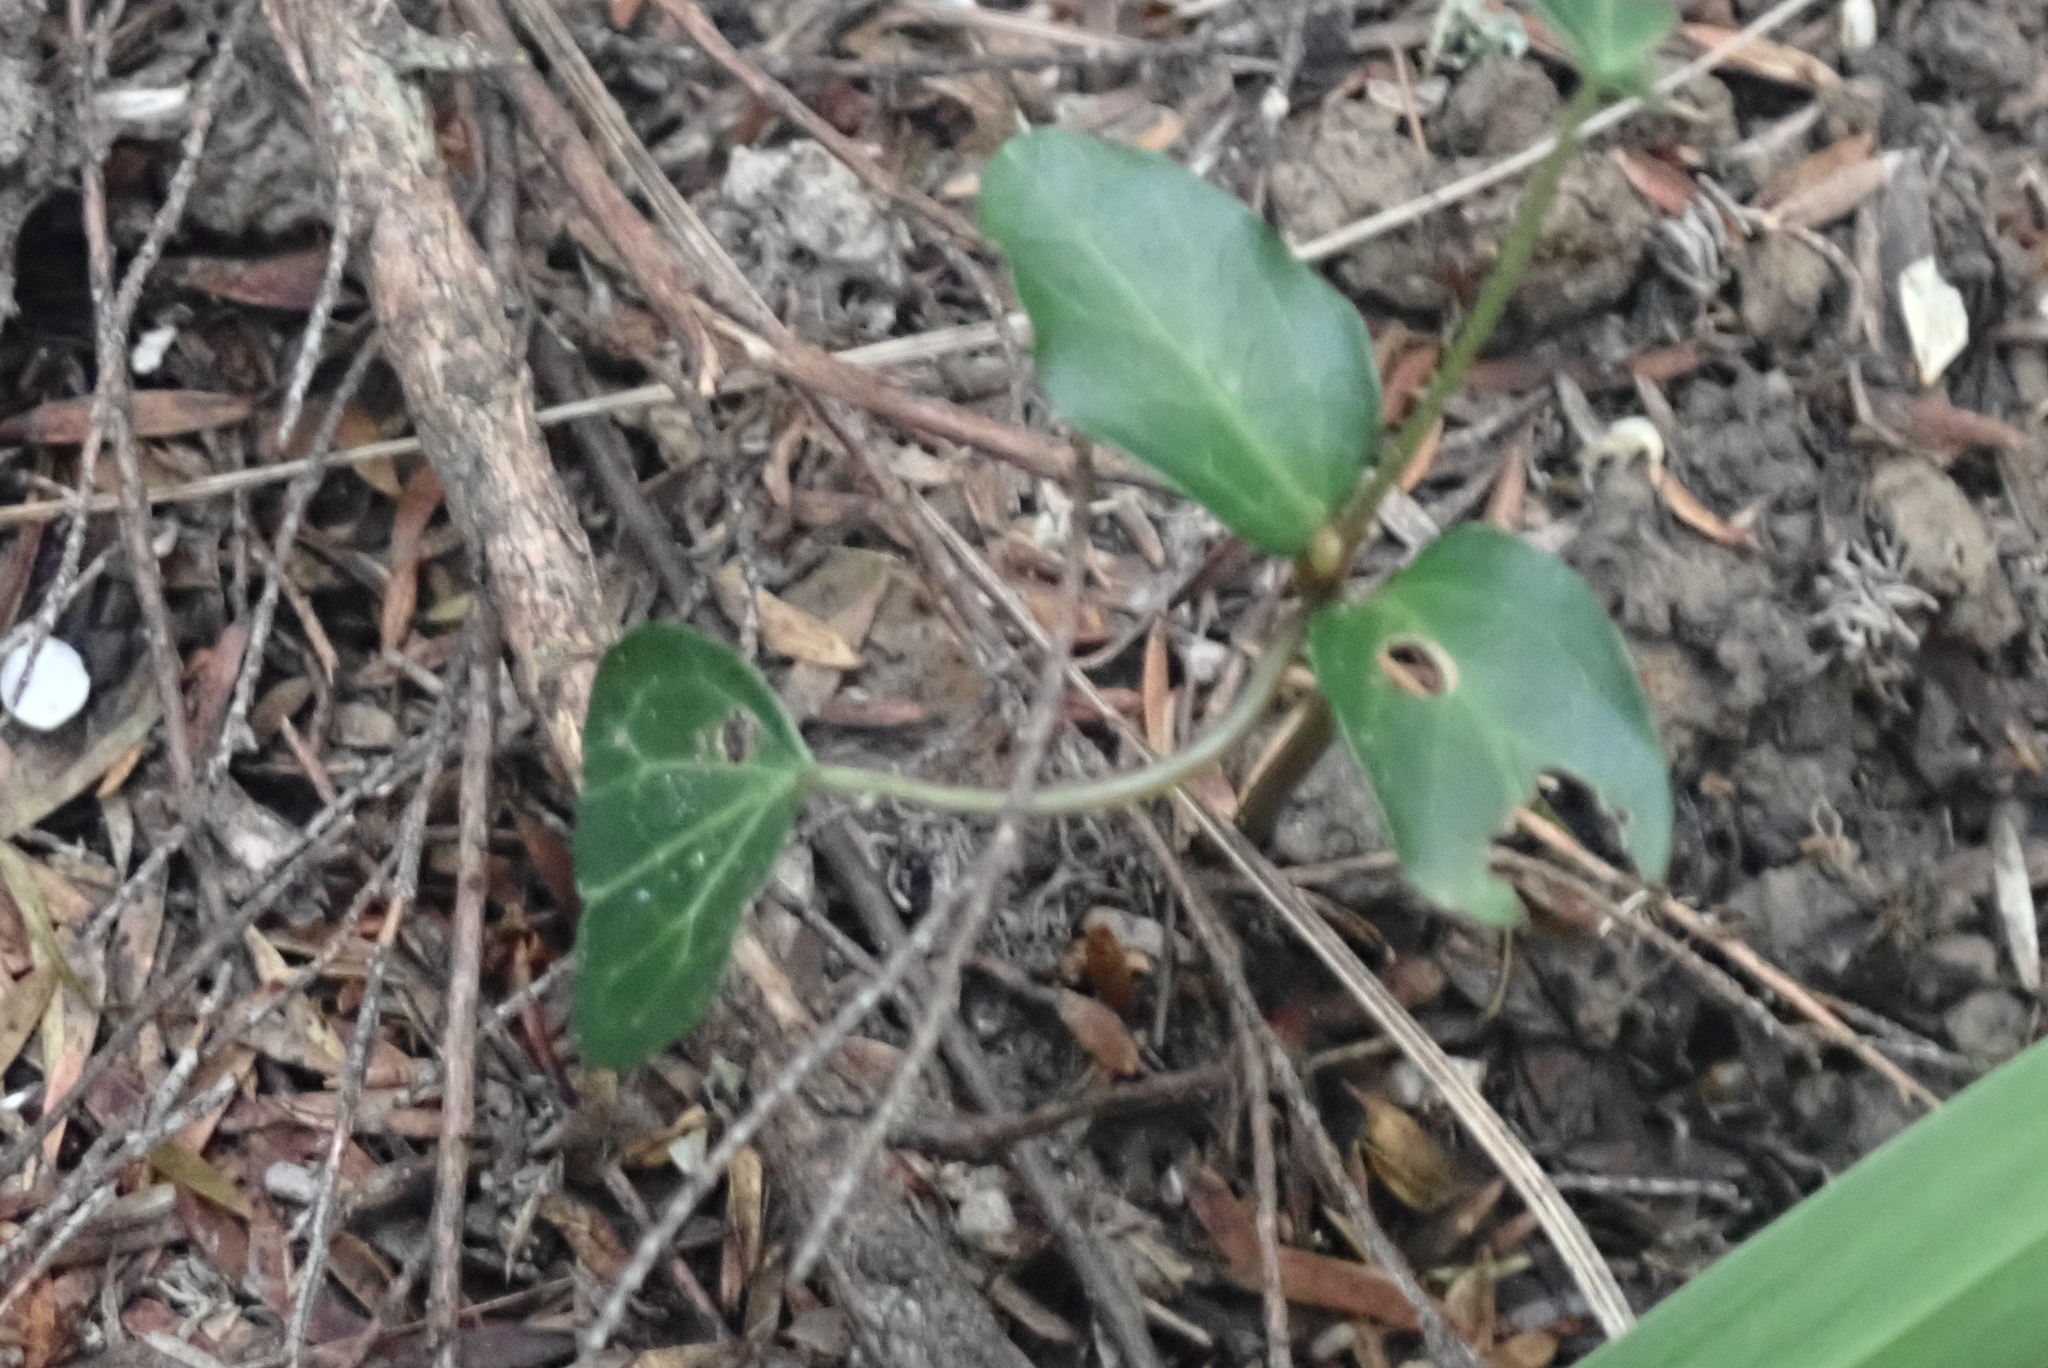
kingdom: Plantae
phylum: Tracheophyta
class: Magnoliopsida
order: Apiales
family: Araliaceae
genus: Hedera
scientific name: Hedera helix
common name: Ivy
